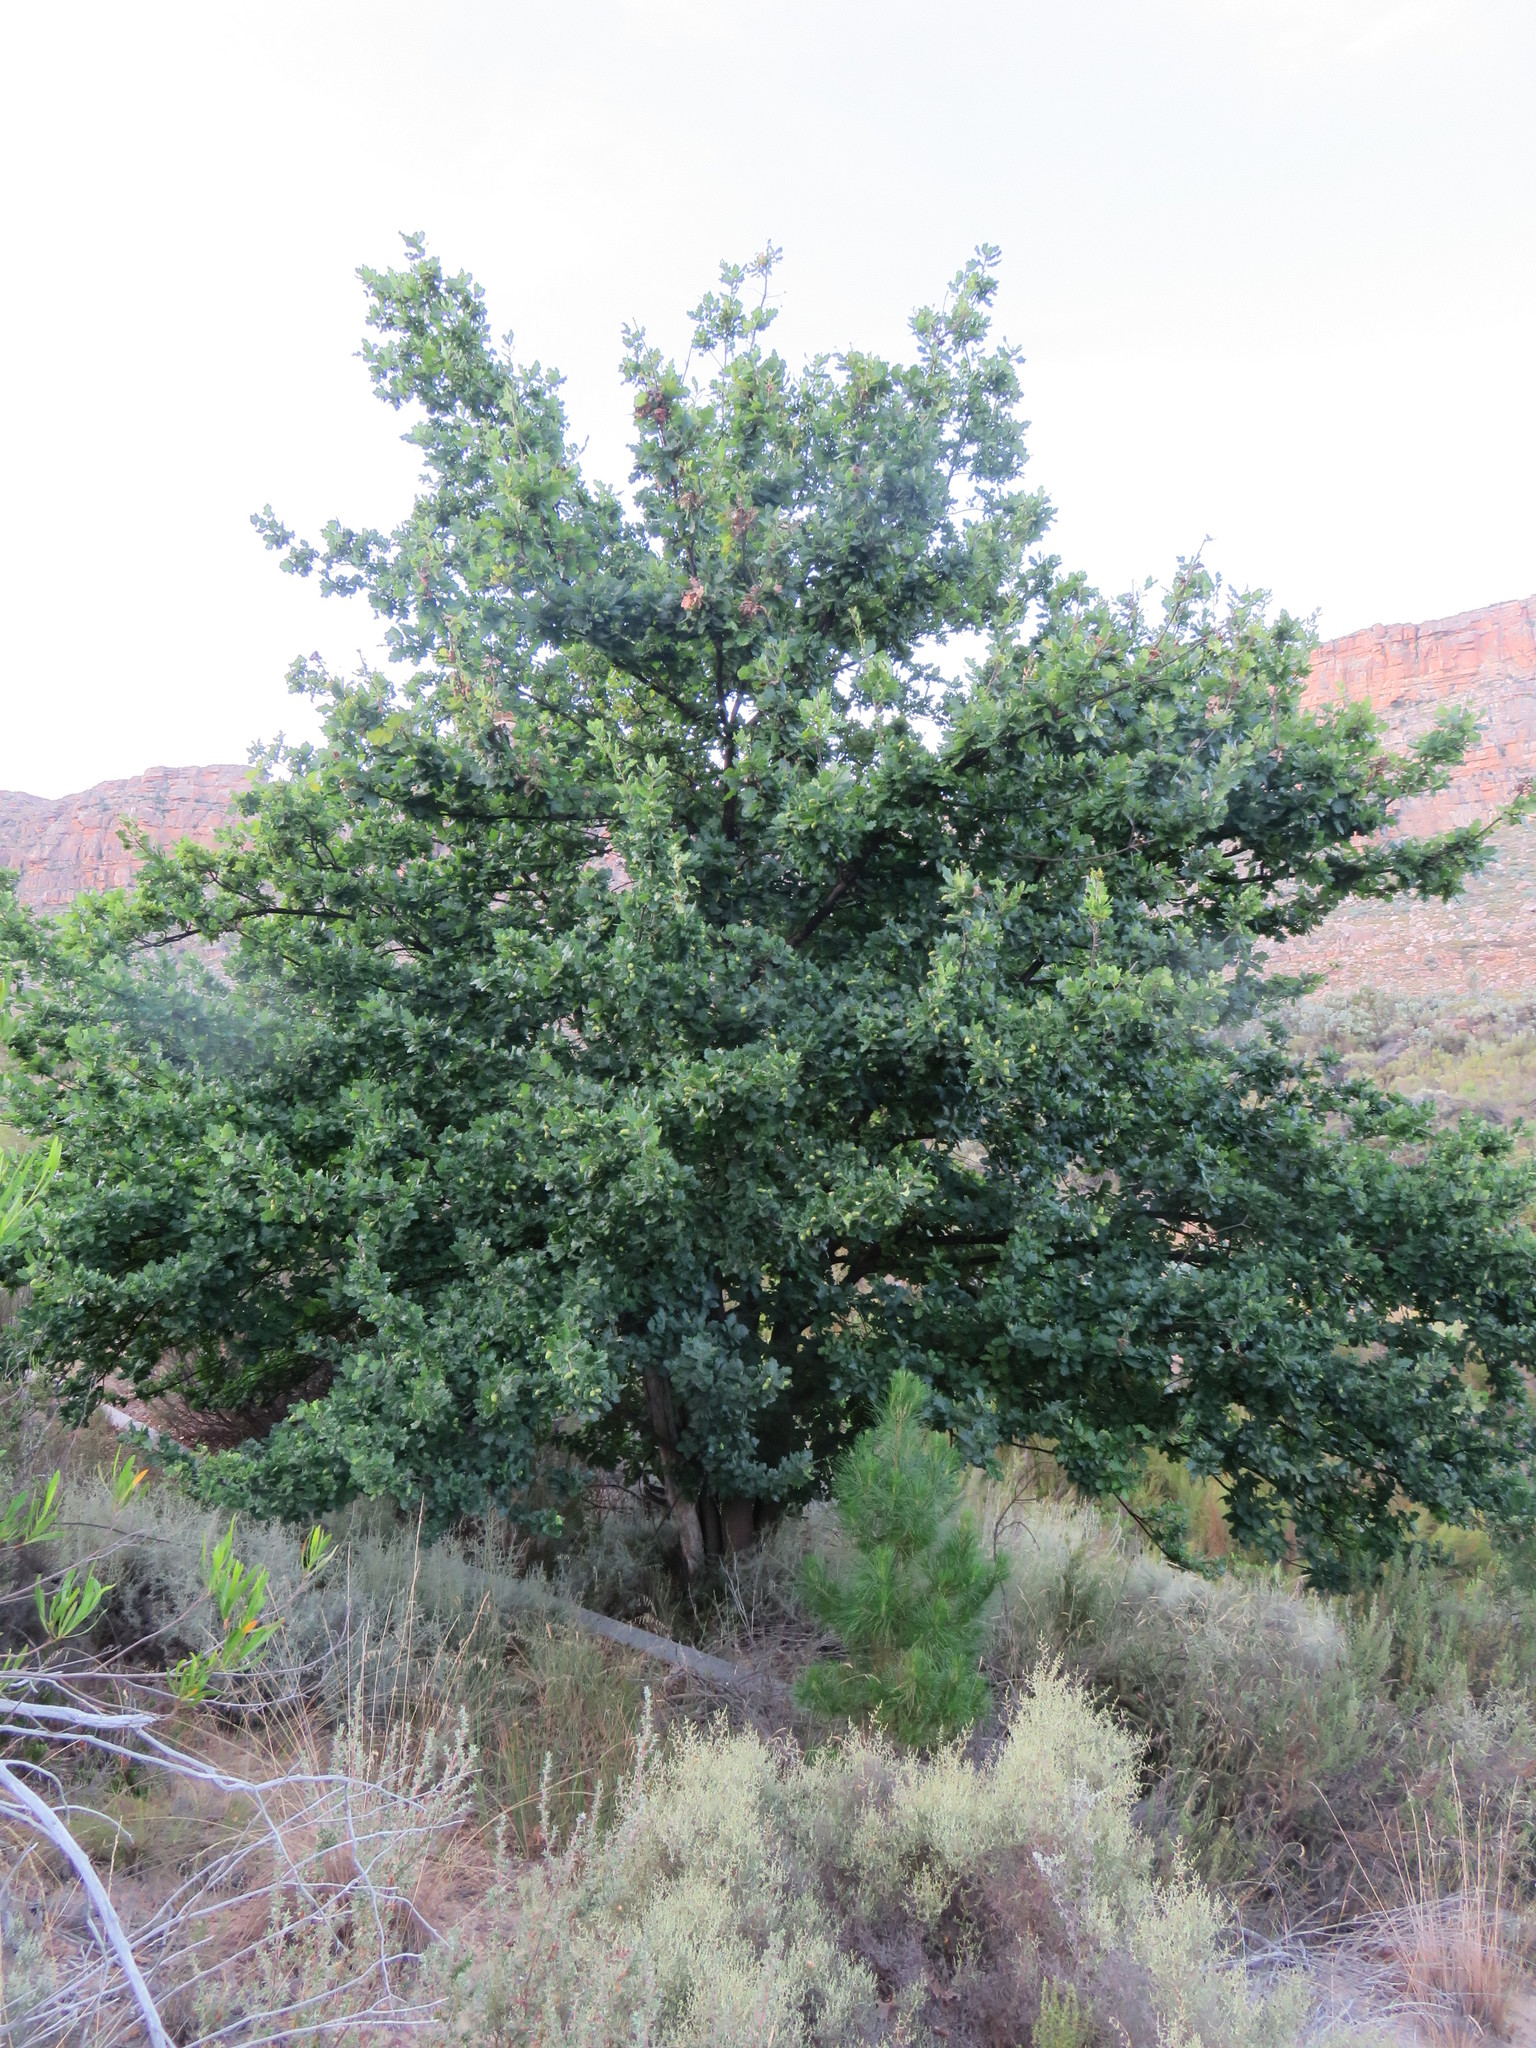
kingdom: Plantae
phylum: Tracheophyta
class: Magnoliopsida
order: Fagales
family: Fagaceae
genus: Quercus
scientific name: Quercus robur
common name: Pedunculate oak
